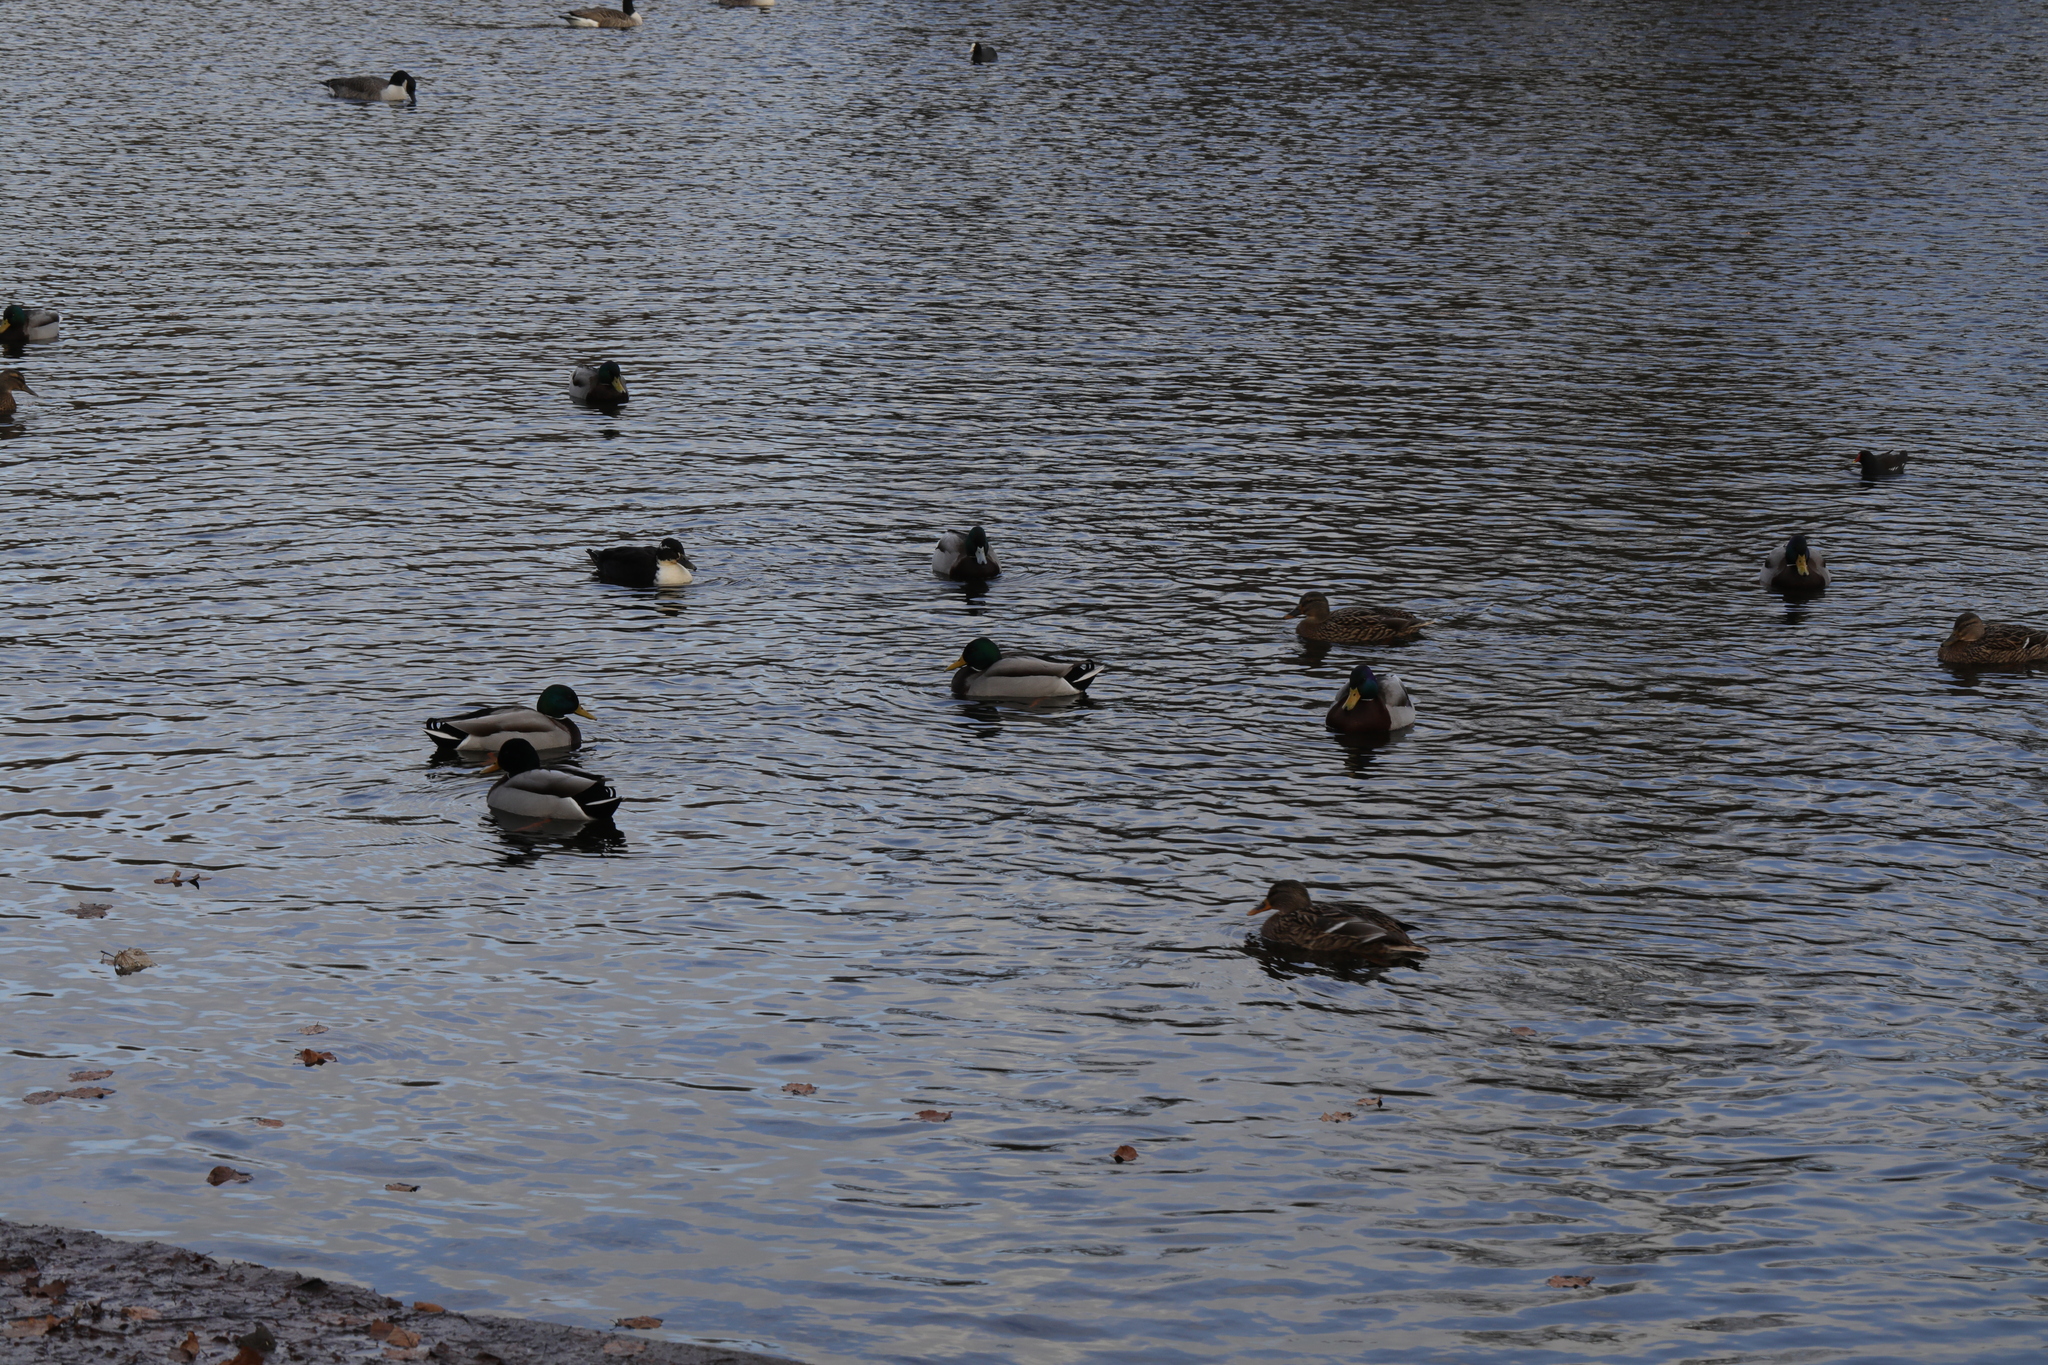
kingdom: Animalia
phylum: Chordata
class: Aves
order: Anseriformes
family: Anatidae
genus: Anas
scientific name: Anas platyrhynchos
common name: Mallard
